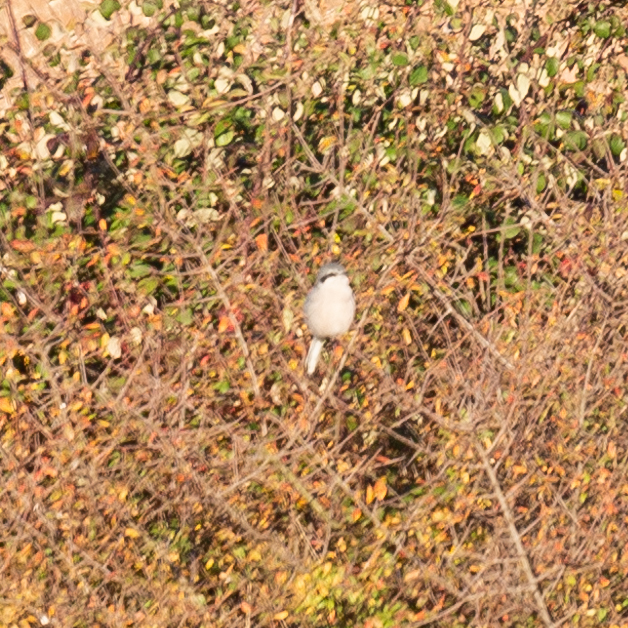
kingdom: Animalia
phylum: Chordata
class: Aves
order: Passeriformes
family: Laniidae
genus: Lanius
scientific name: Lanius meridionalis
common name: Iberian grey shrike
